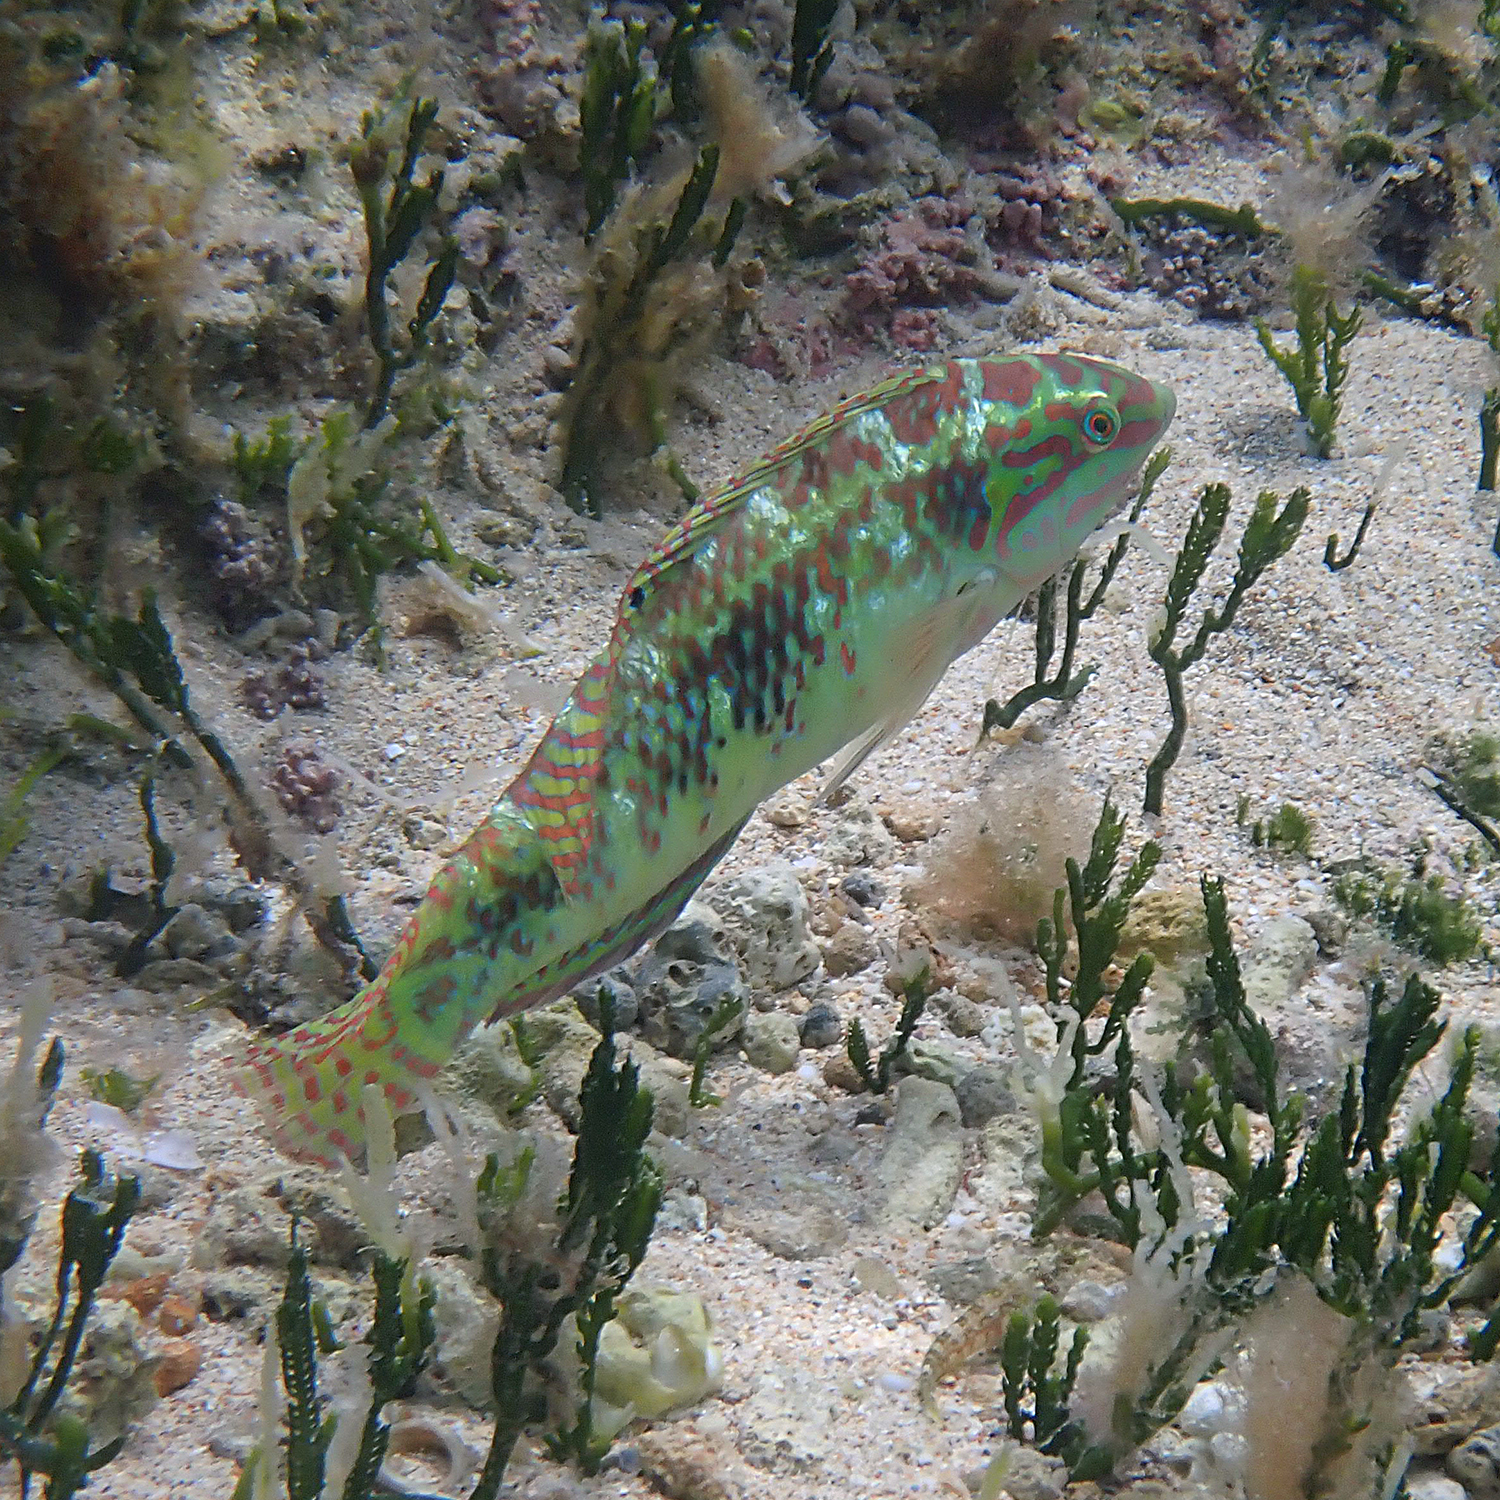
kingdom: Animalia
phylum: Chordata
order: Perciformes
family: Labridae
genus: Halichoeres
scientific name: Halichoeres margaritaceus
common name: Pink-belly wrasse
